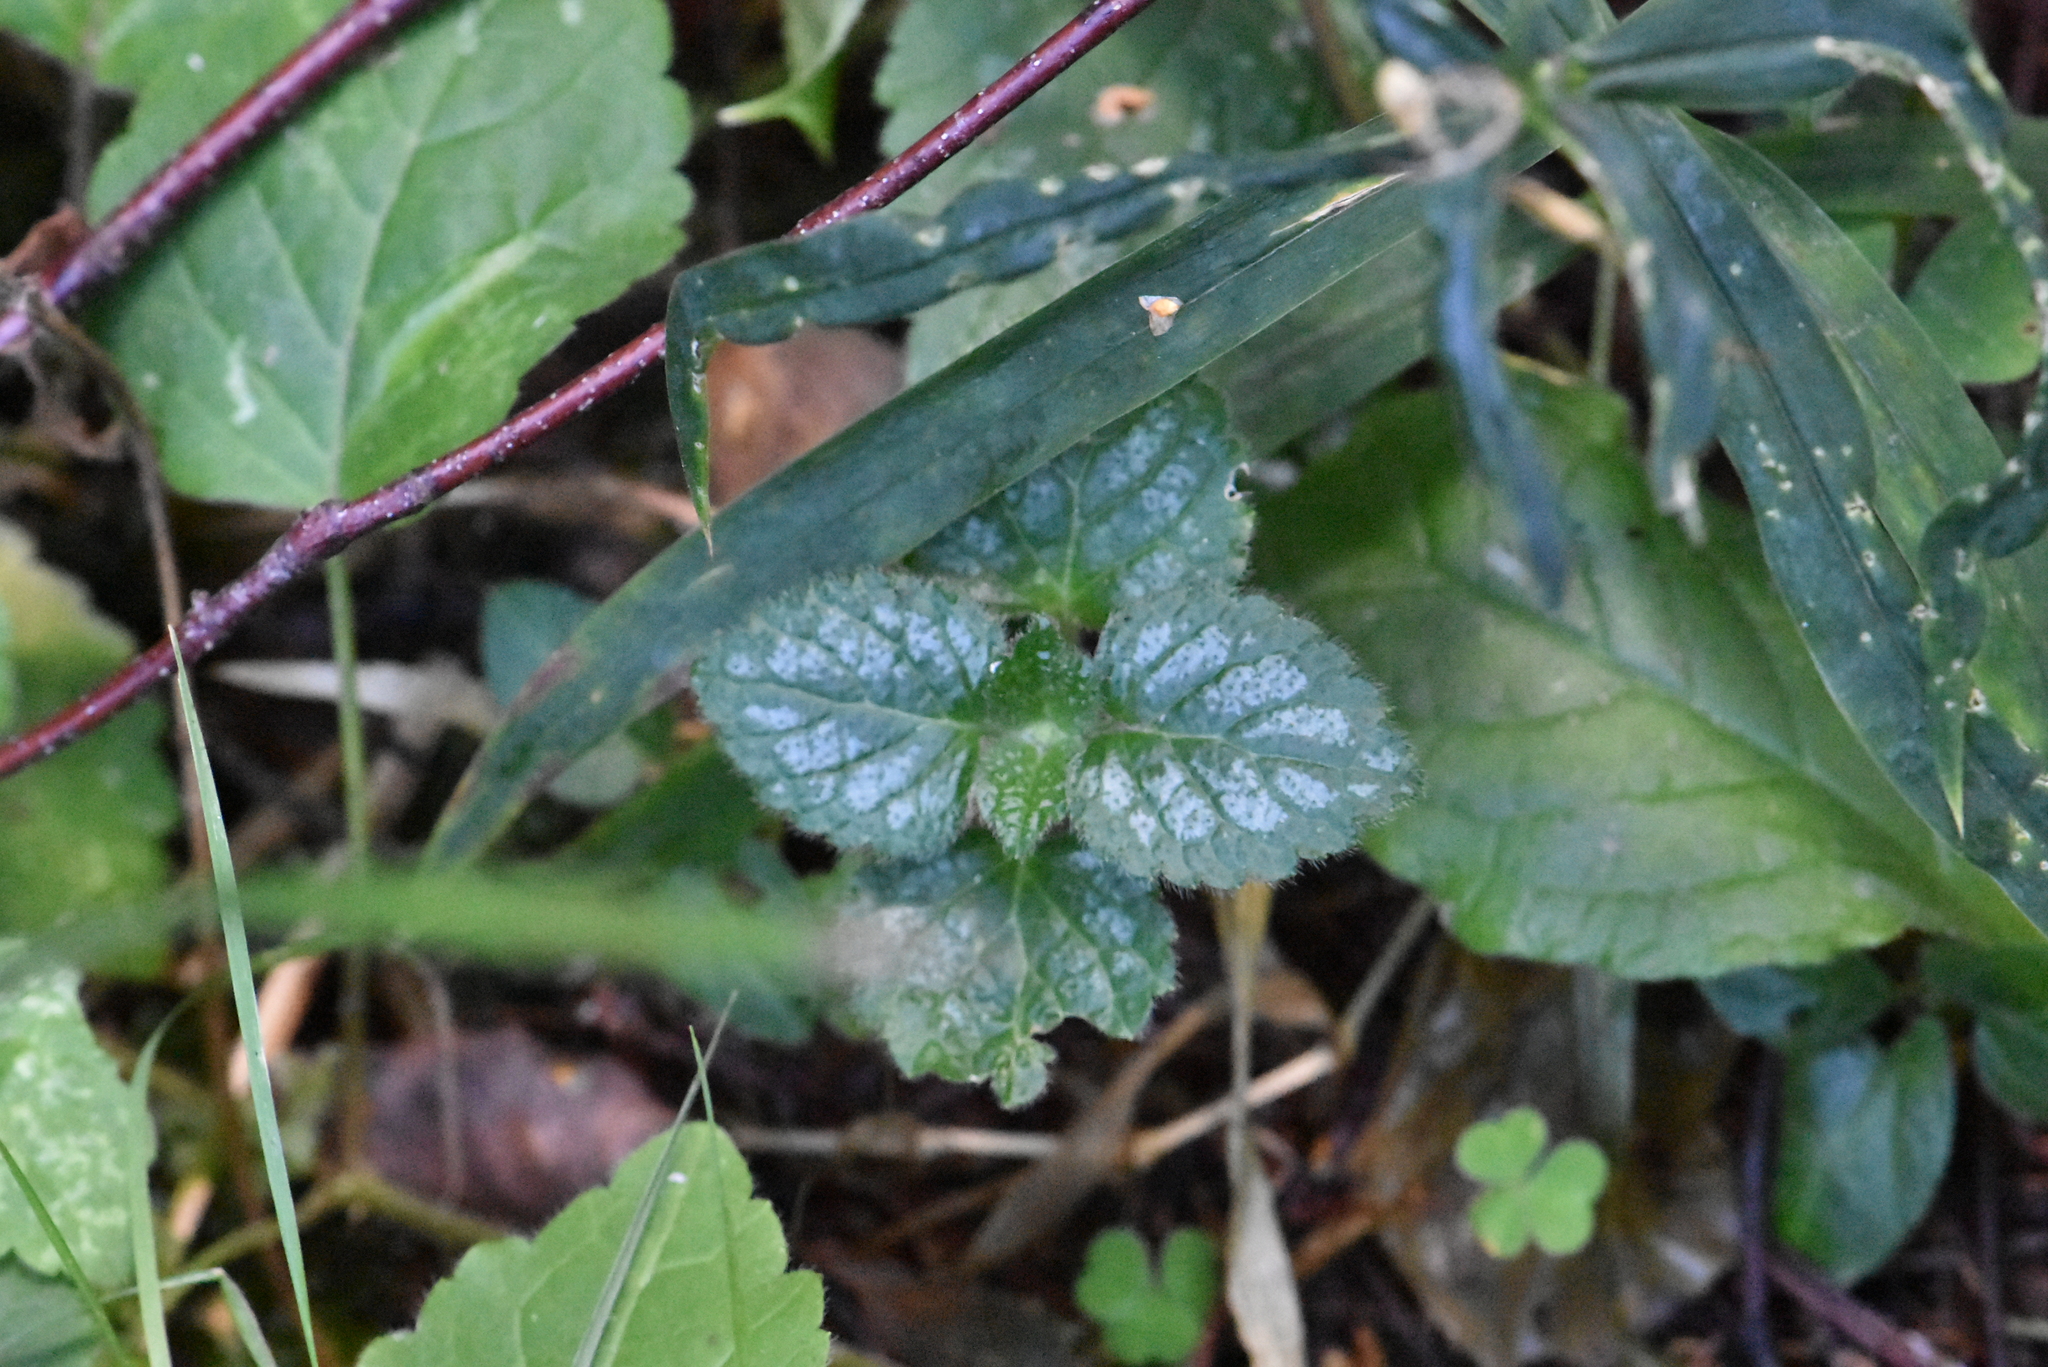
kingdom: Plantae
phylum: Tracheophyta
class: Magnoliopsida
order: Lamiales
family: Lamiaceae
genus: Lamium
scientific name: Lamium galeobdolon
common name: Yellow archangel
